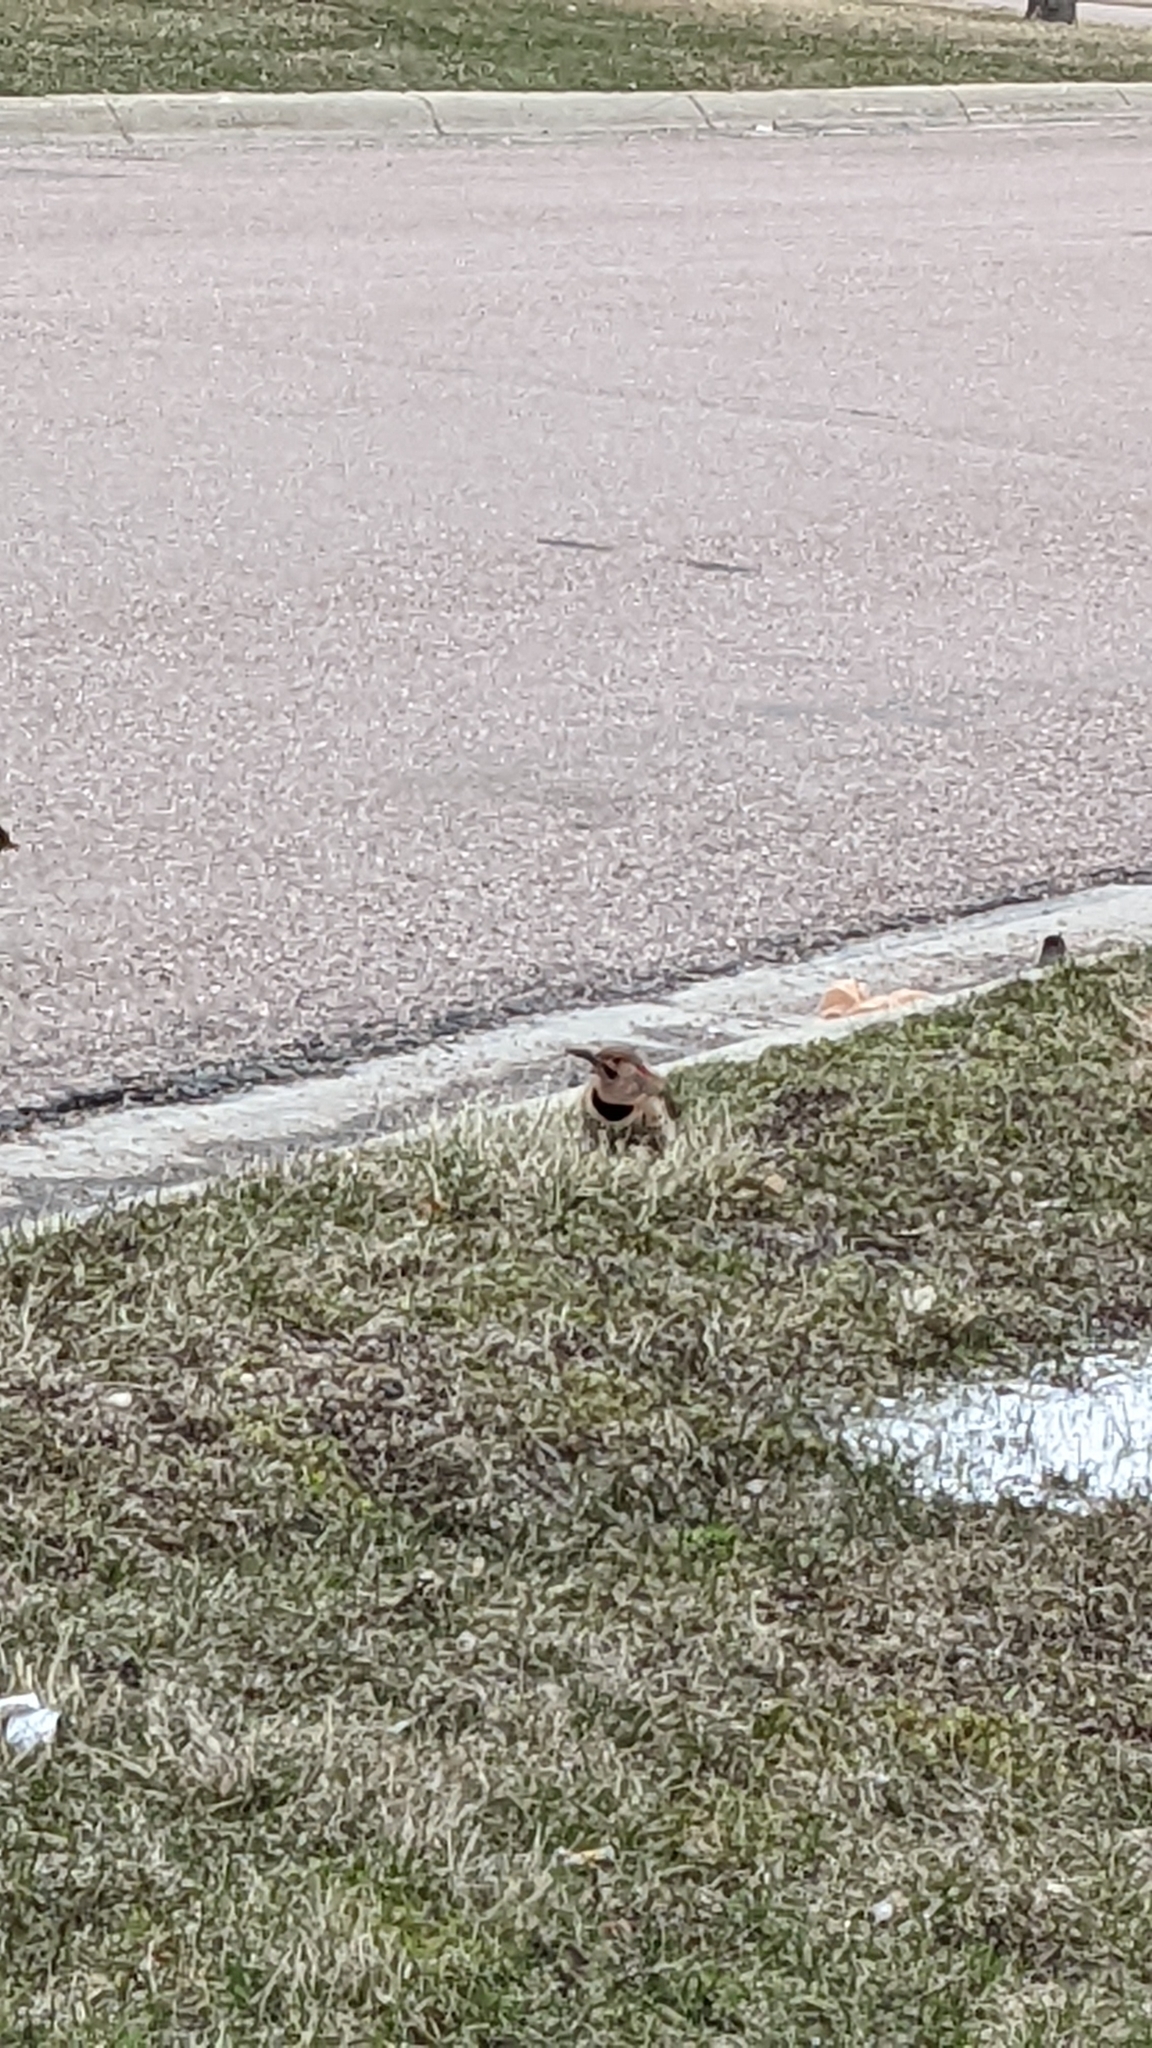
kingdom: Animalia
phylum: Chordata
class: Aves
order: Piciformes
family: Picidae
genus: Colaptes
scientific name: Colaptes auratus
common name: Northern flicker
